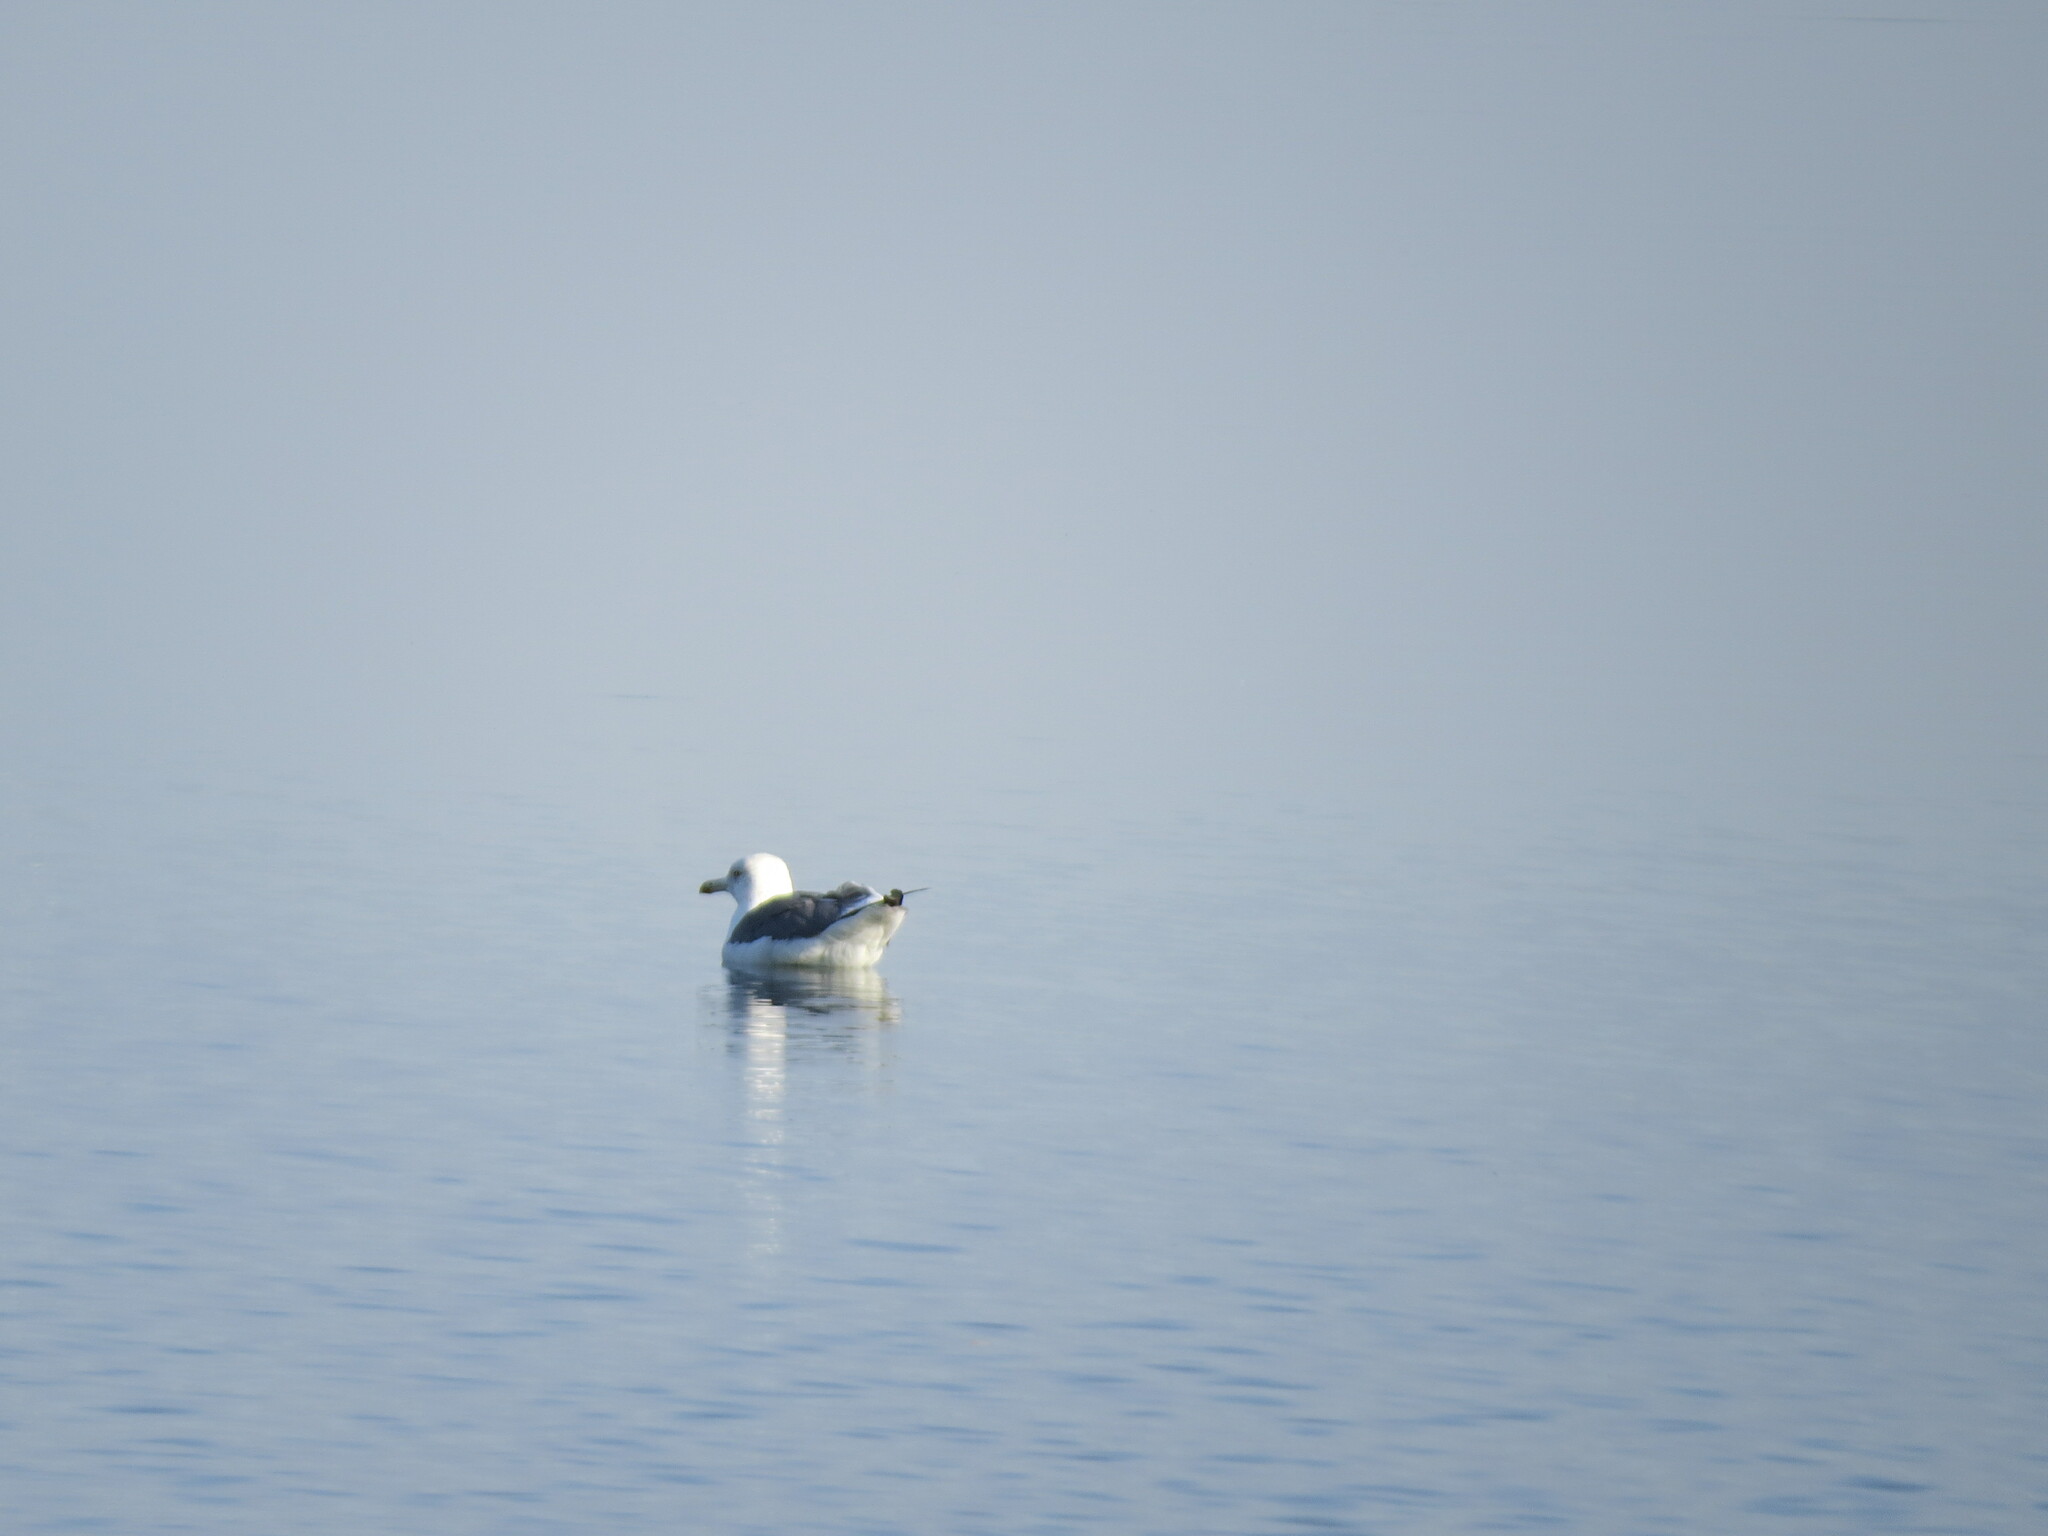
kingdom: Animalia
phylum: Chordata
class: Aves
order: Charadriiformes
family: Laridae
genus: Larus
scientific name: Larus fuscus
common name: Lesser black-backed gull
